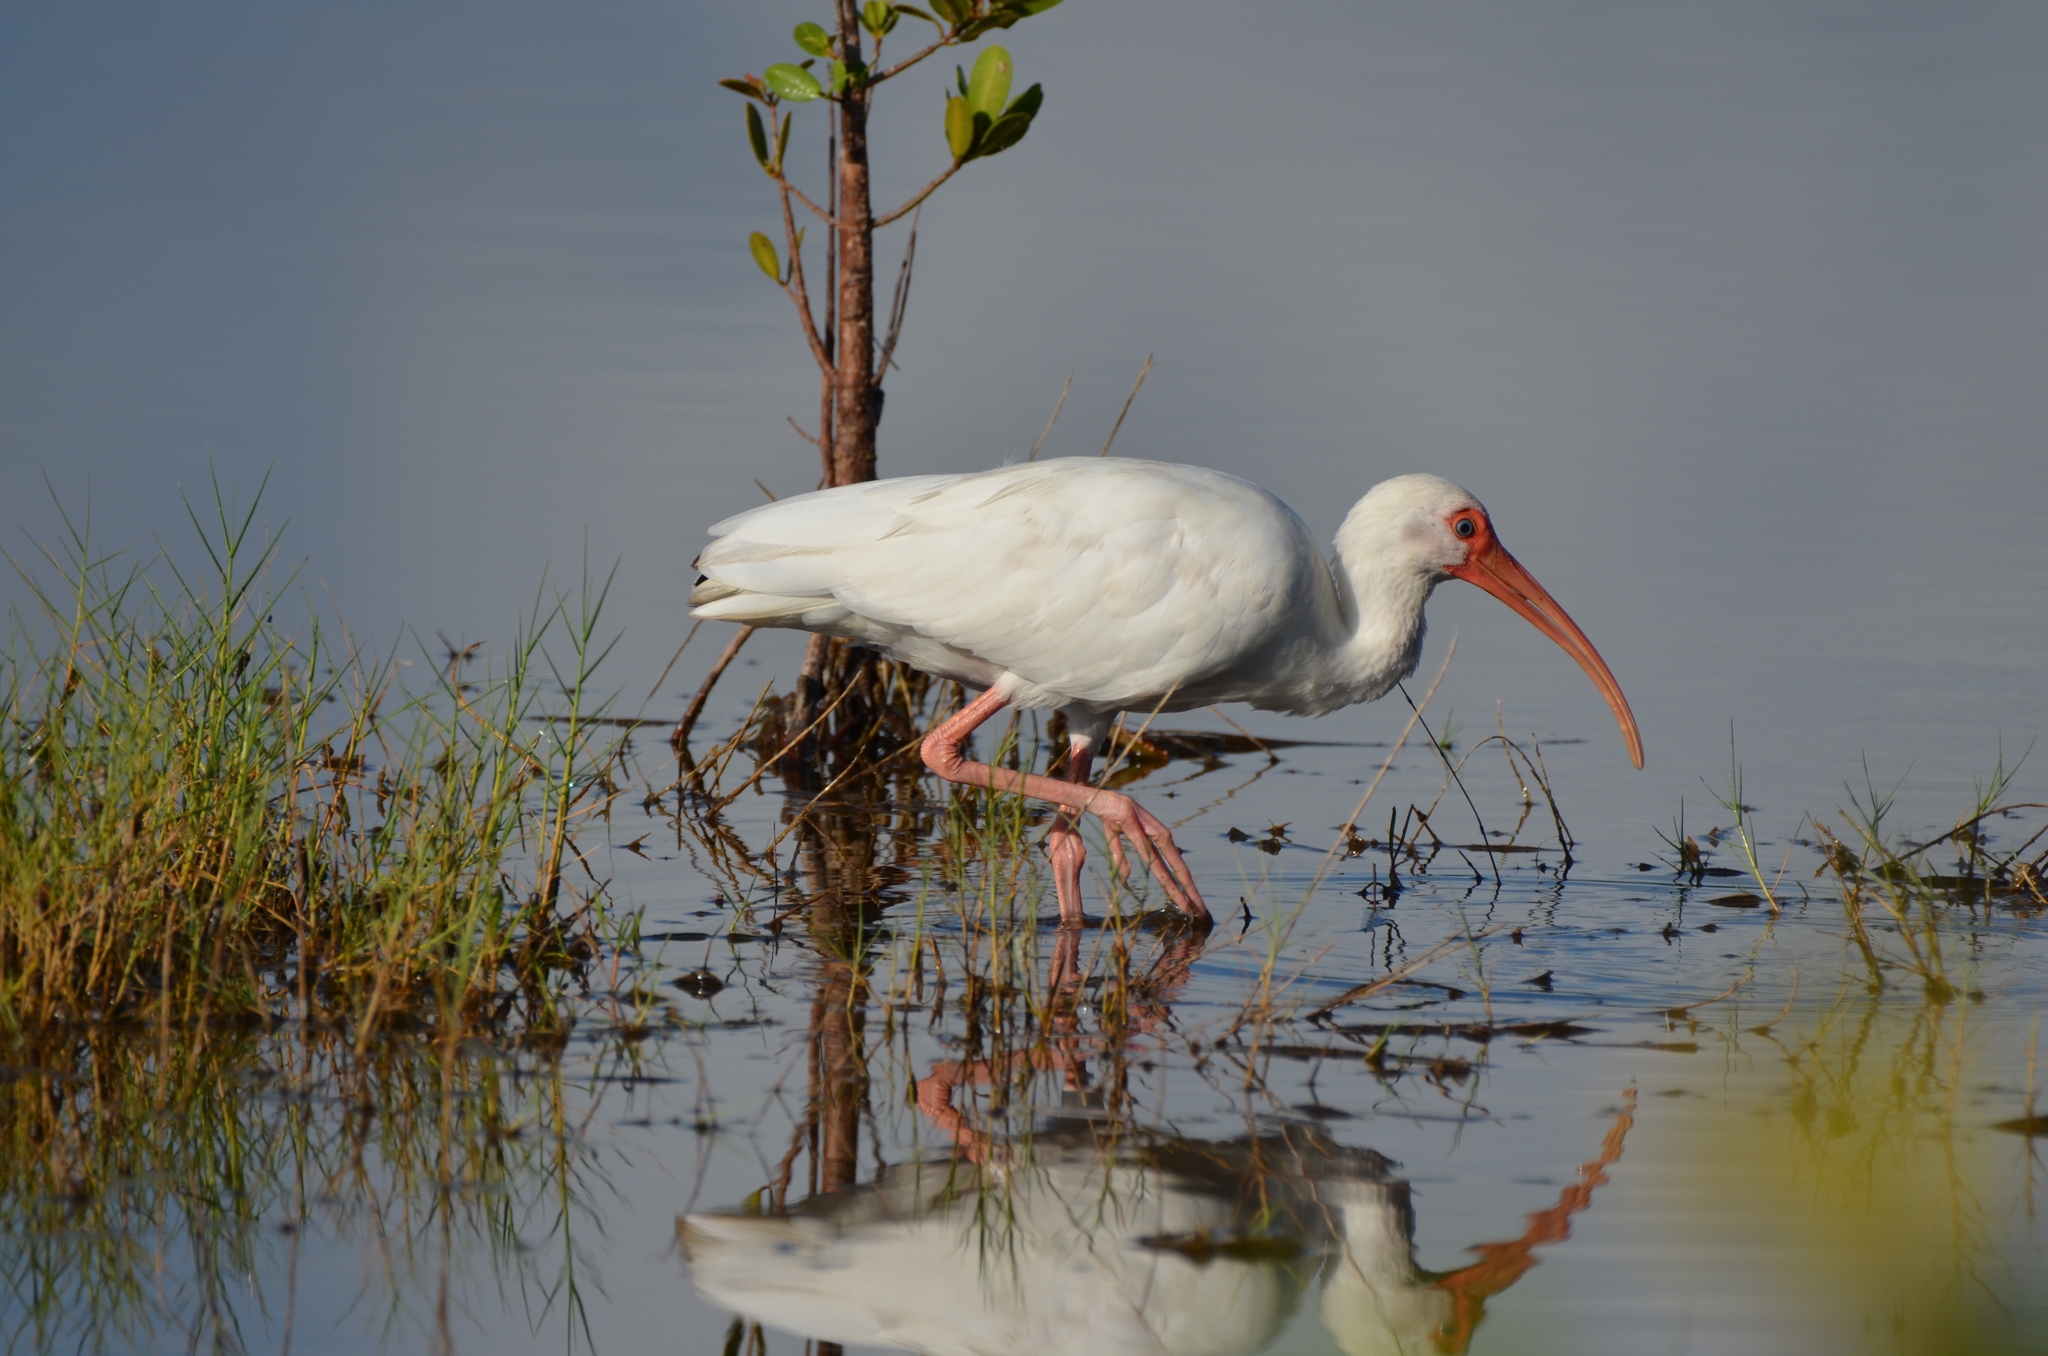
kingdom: Animalia
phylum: Chordata
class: Aves
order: Pelecaniformes
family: Threskiornithidae
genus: Eudocimus
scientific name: Eudocimus albus
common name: White ibis
